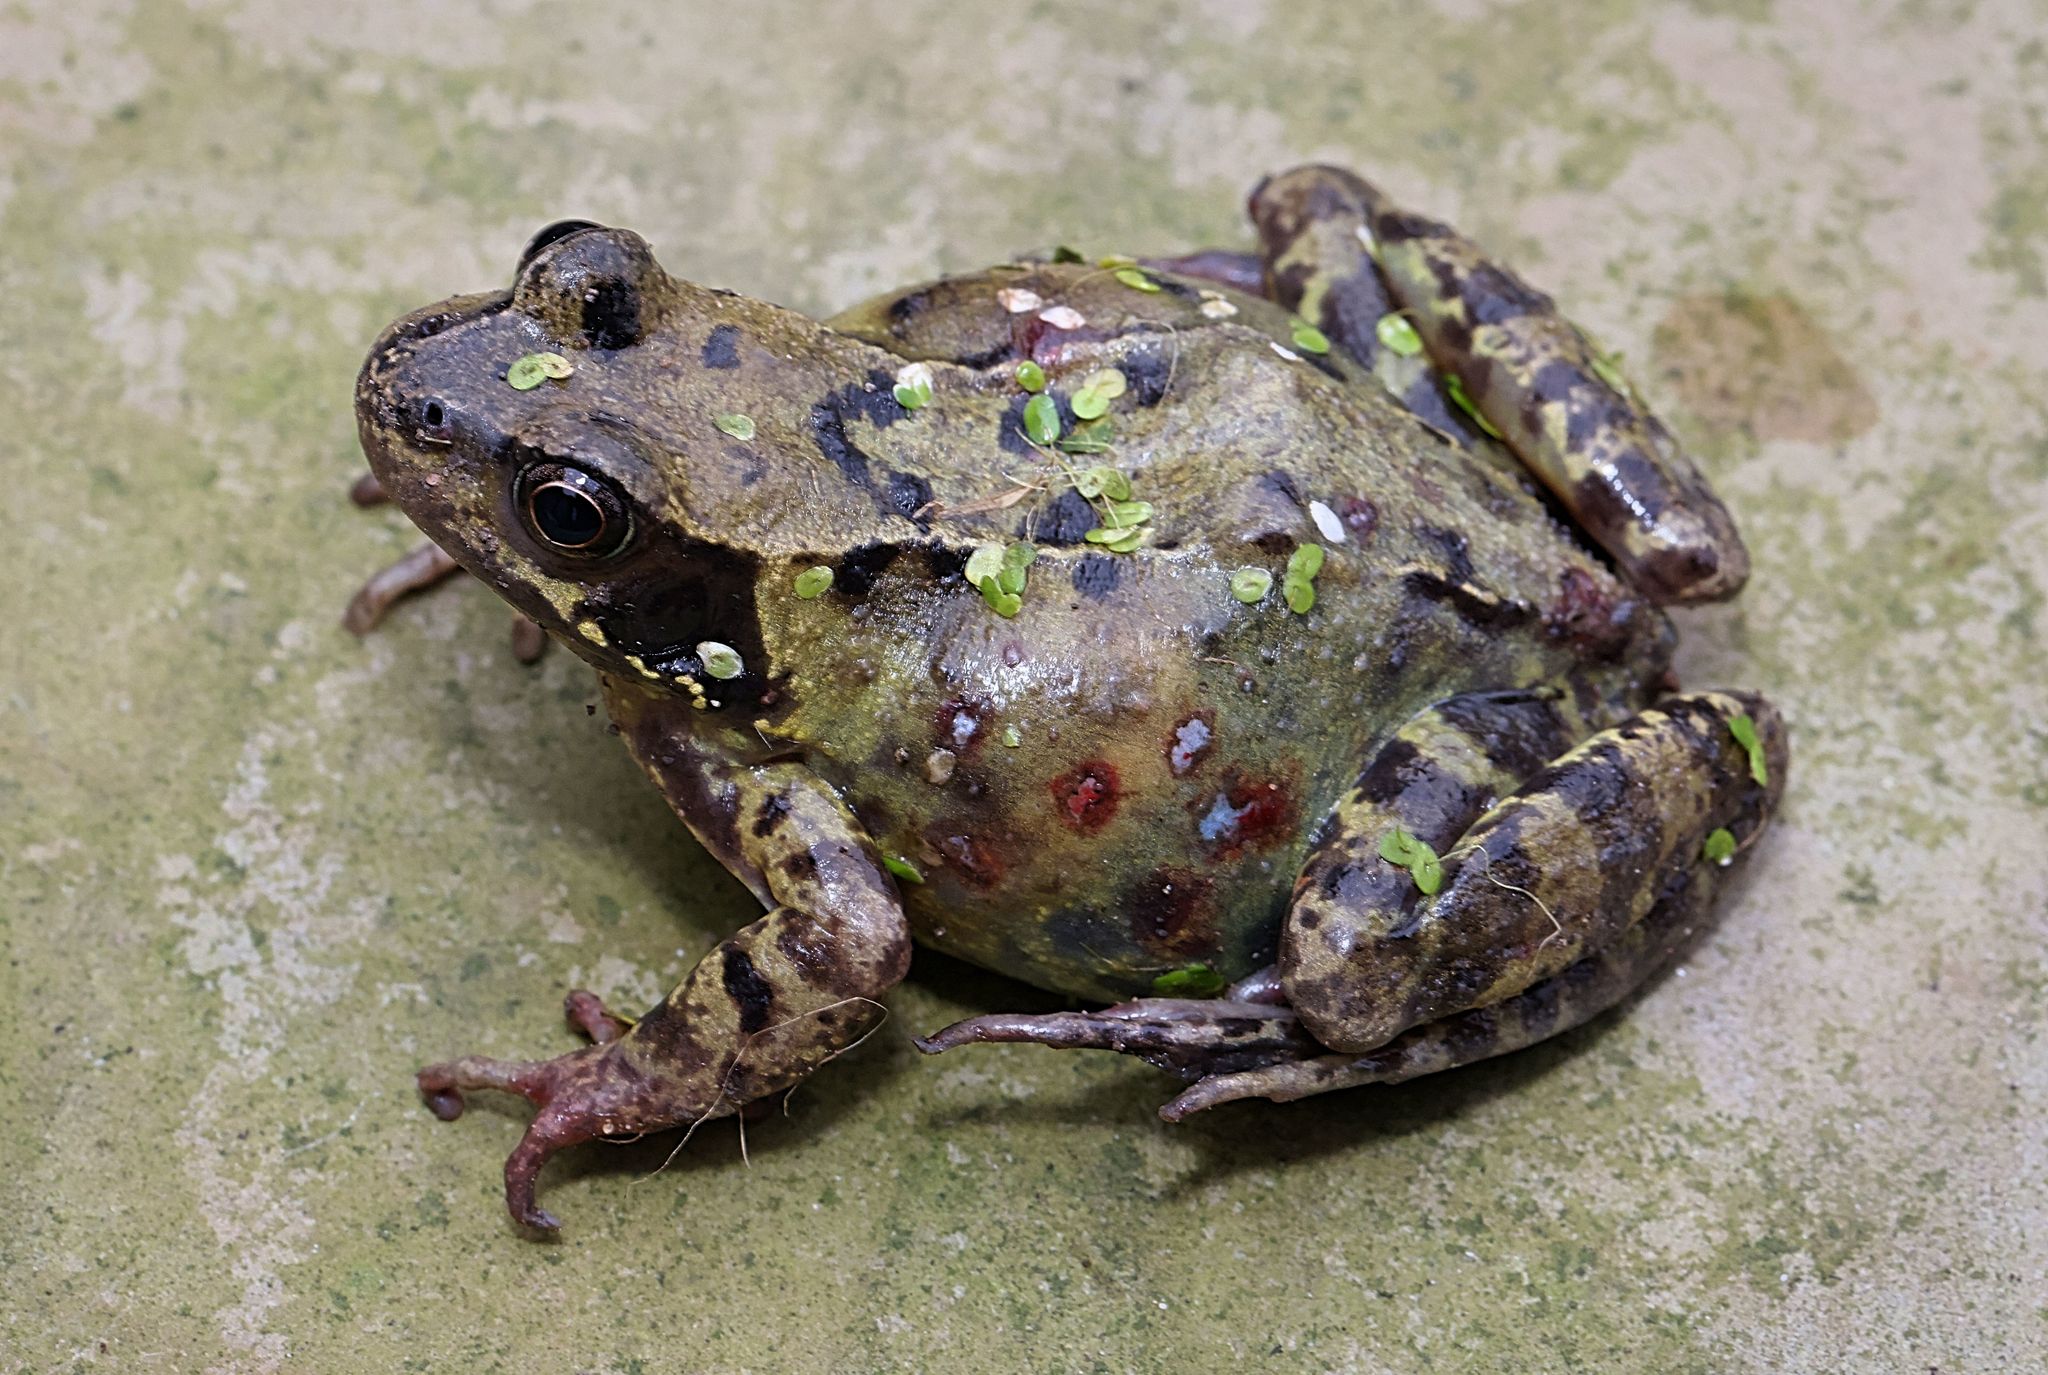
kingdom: Animalia
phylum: Chordata
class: Amphibia
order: Anura
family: Ranidae
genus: Rana
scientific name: Rana temporaria
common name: Common frog
